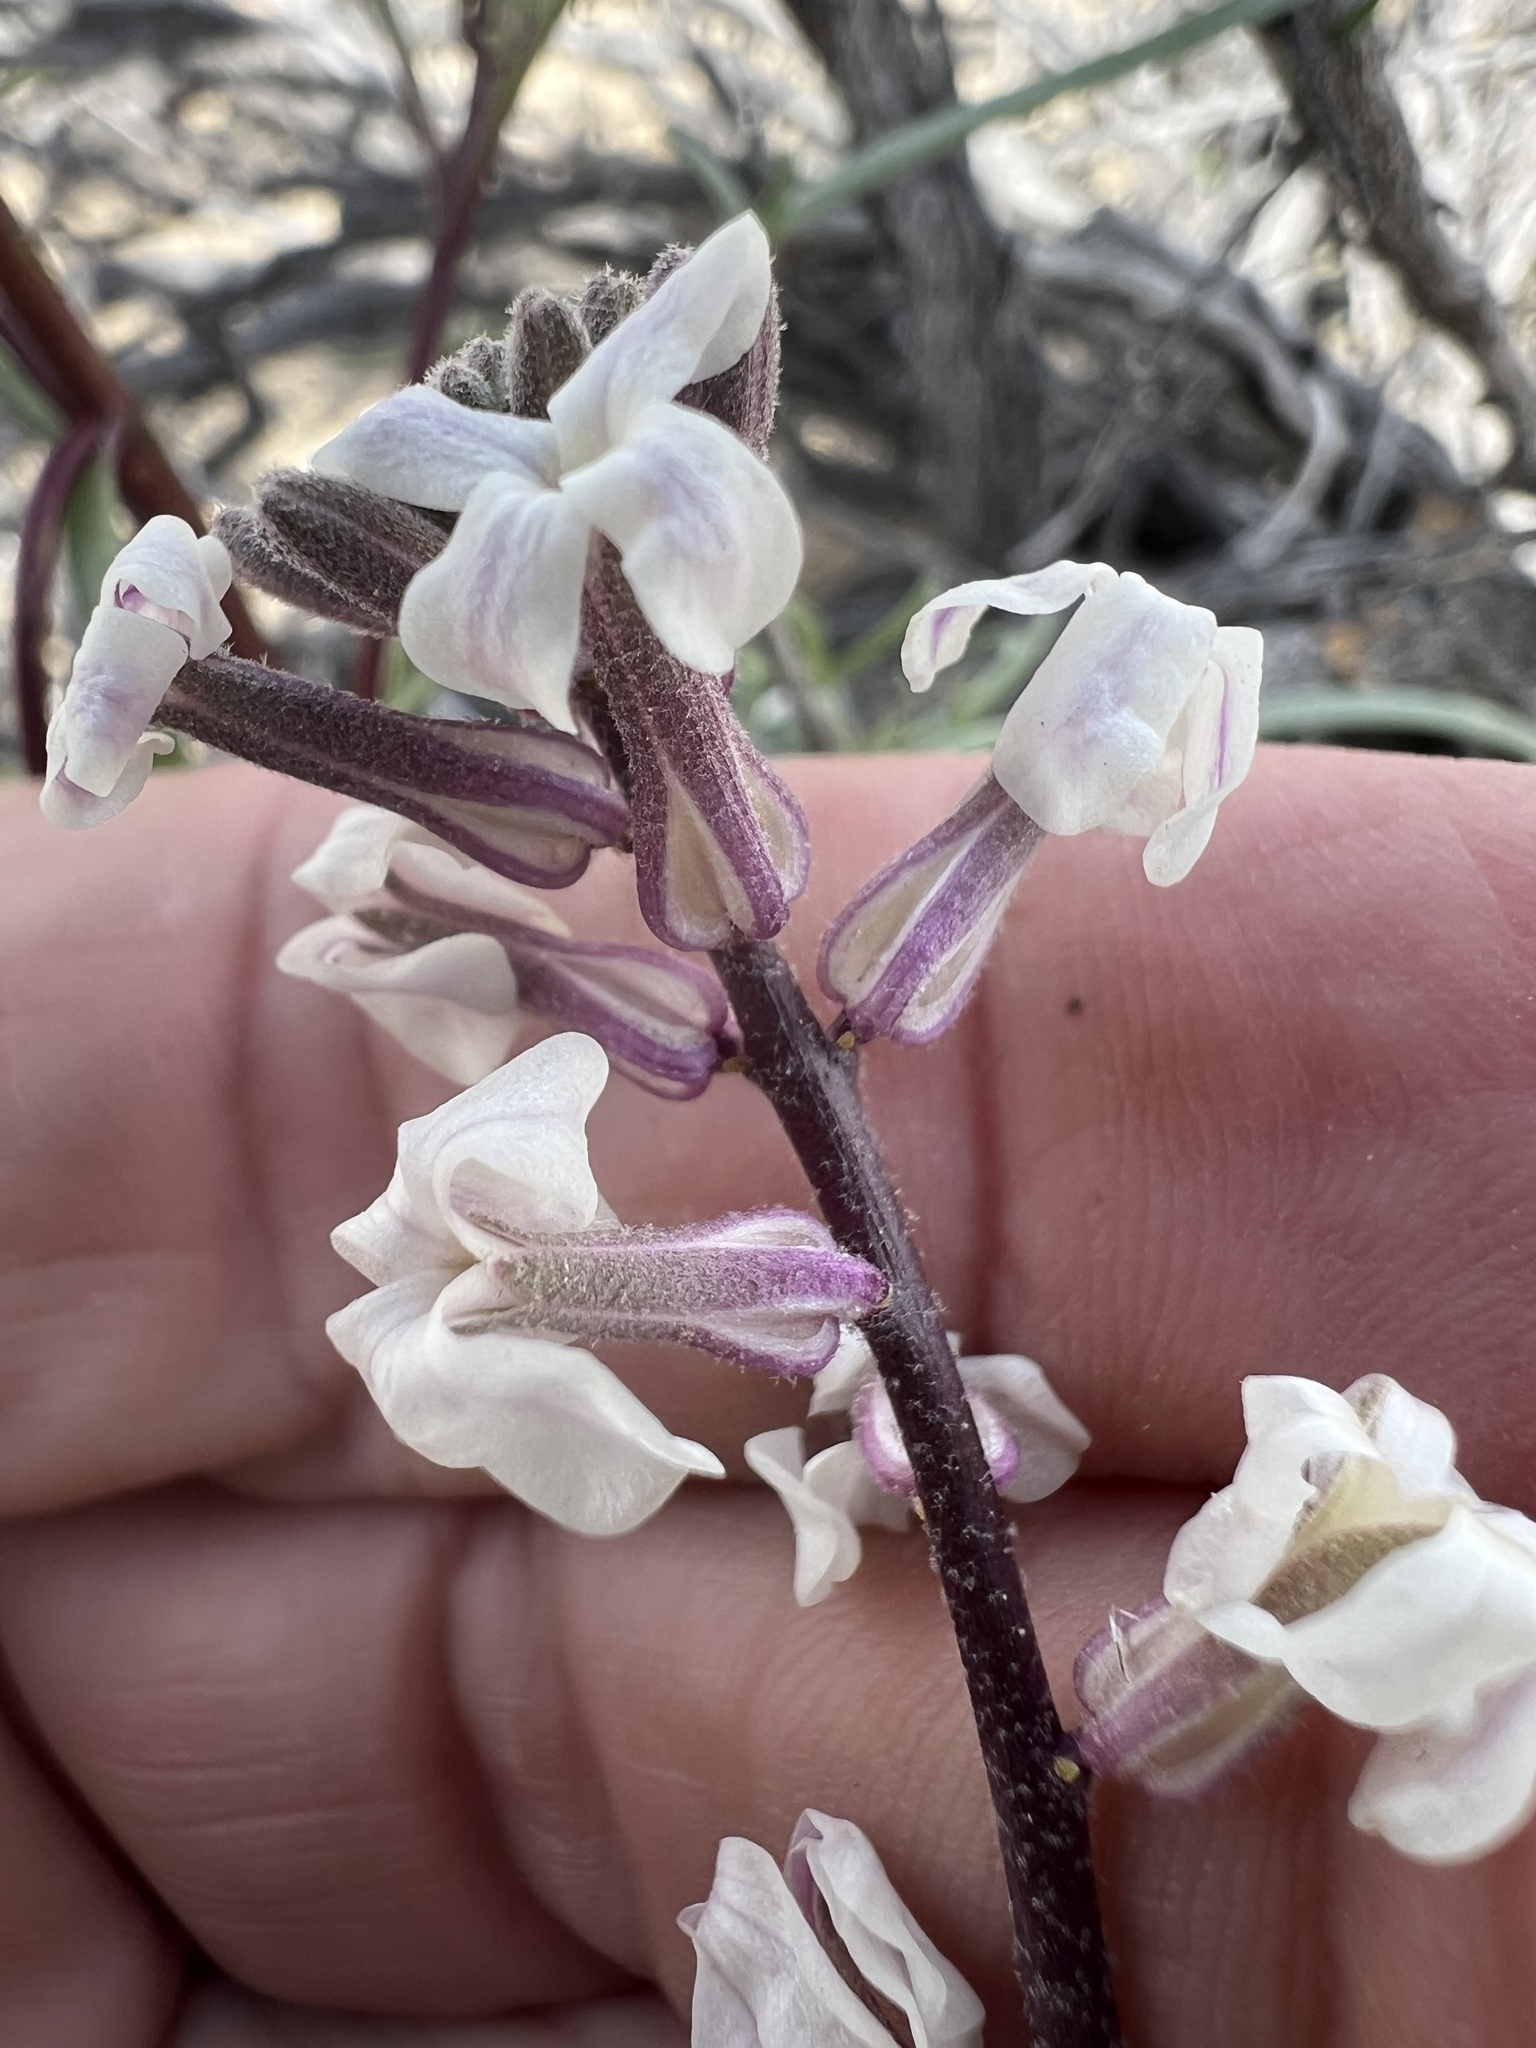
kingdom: Plantae
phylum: Tracheophyta
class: Magnoliopsida
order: Brassicales
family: Brassicaceae
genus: Dithyrea
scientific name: Dithyrea californica
